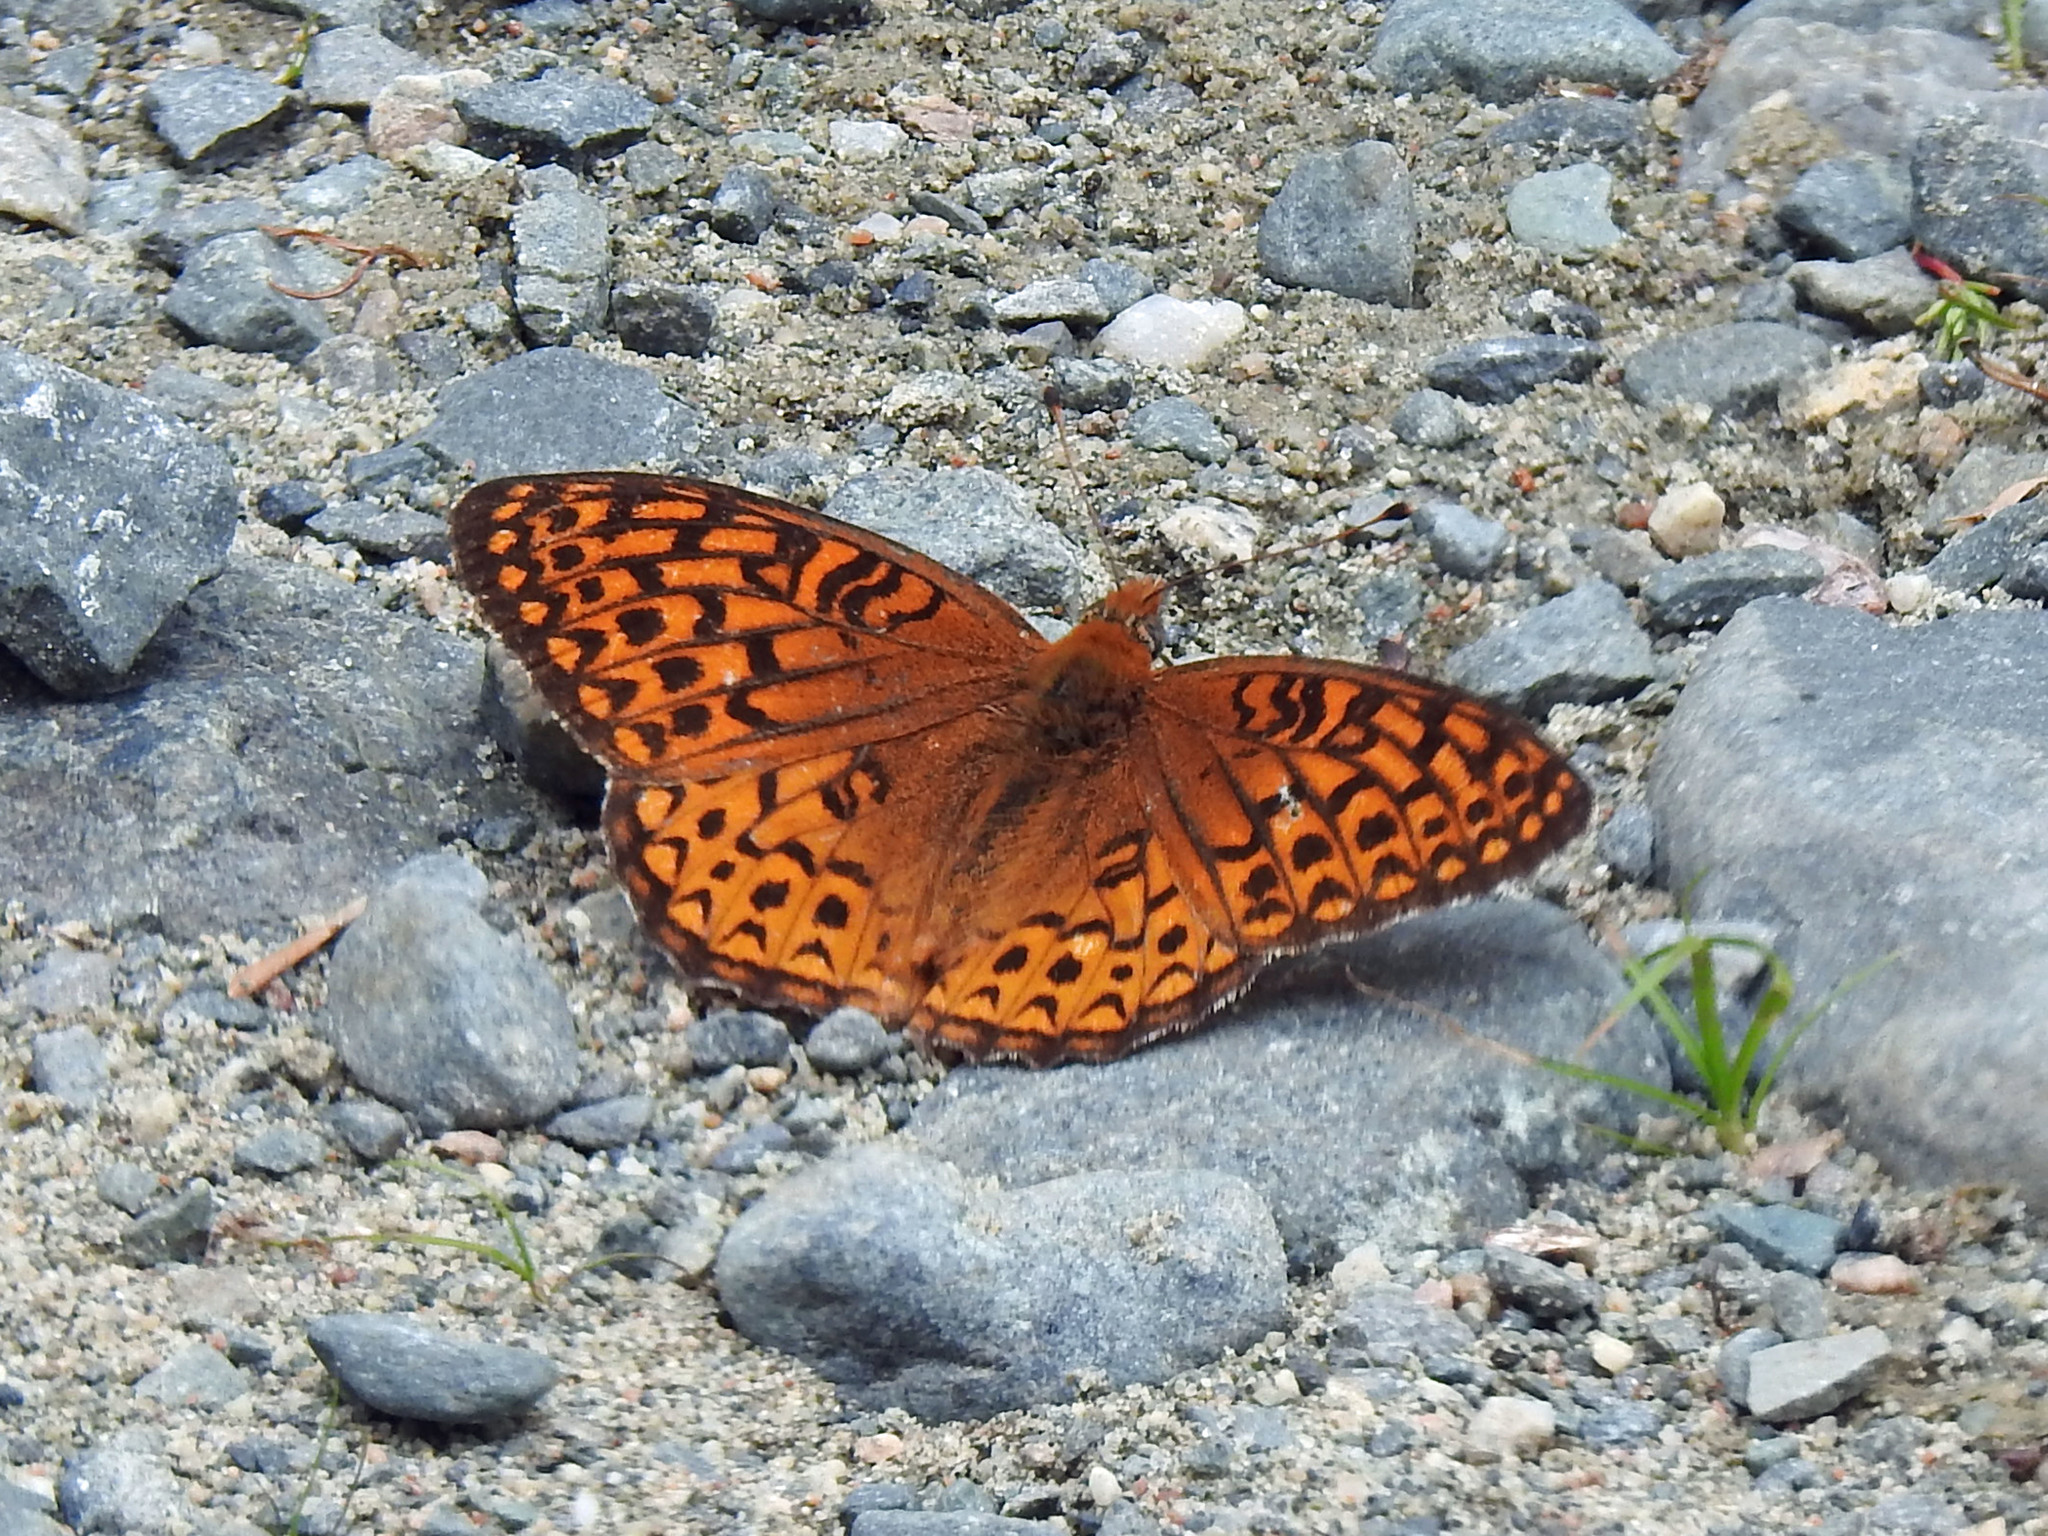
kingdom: Animalia
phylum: Arthropoda
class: Insecta
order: Lepidoptera
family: Nymphalidae
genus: Speyeria
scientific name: Speyeria atlantis
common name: Atlantis fritillary
